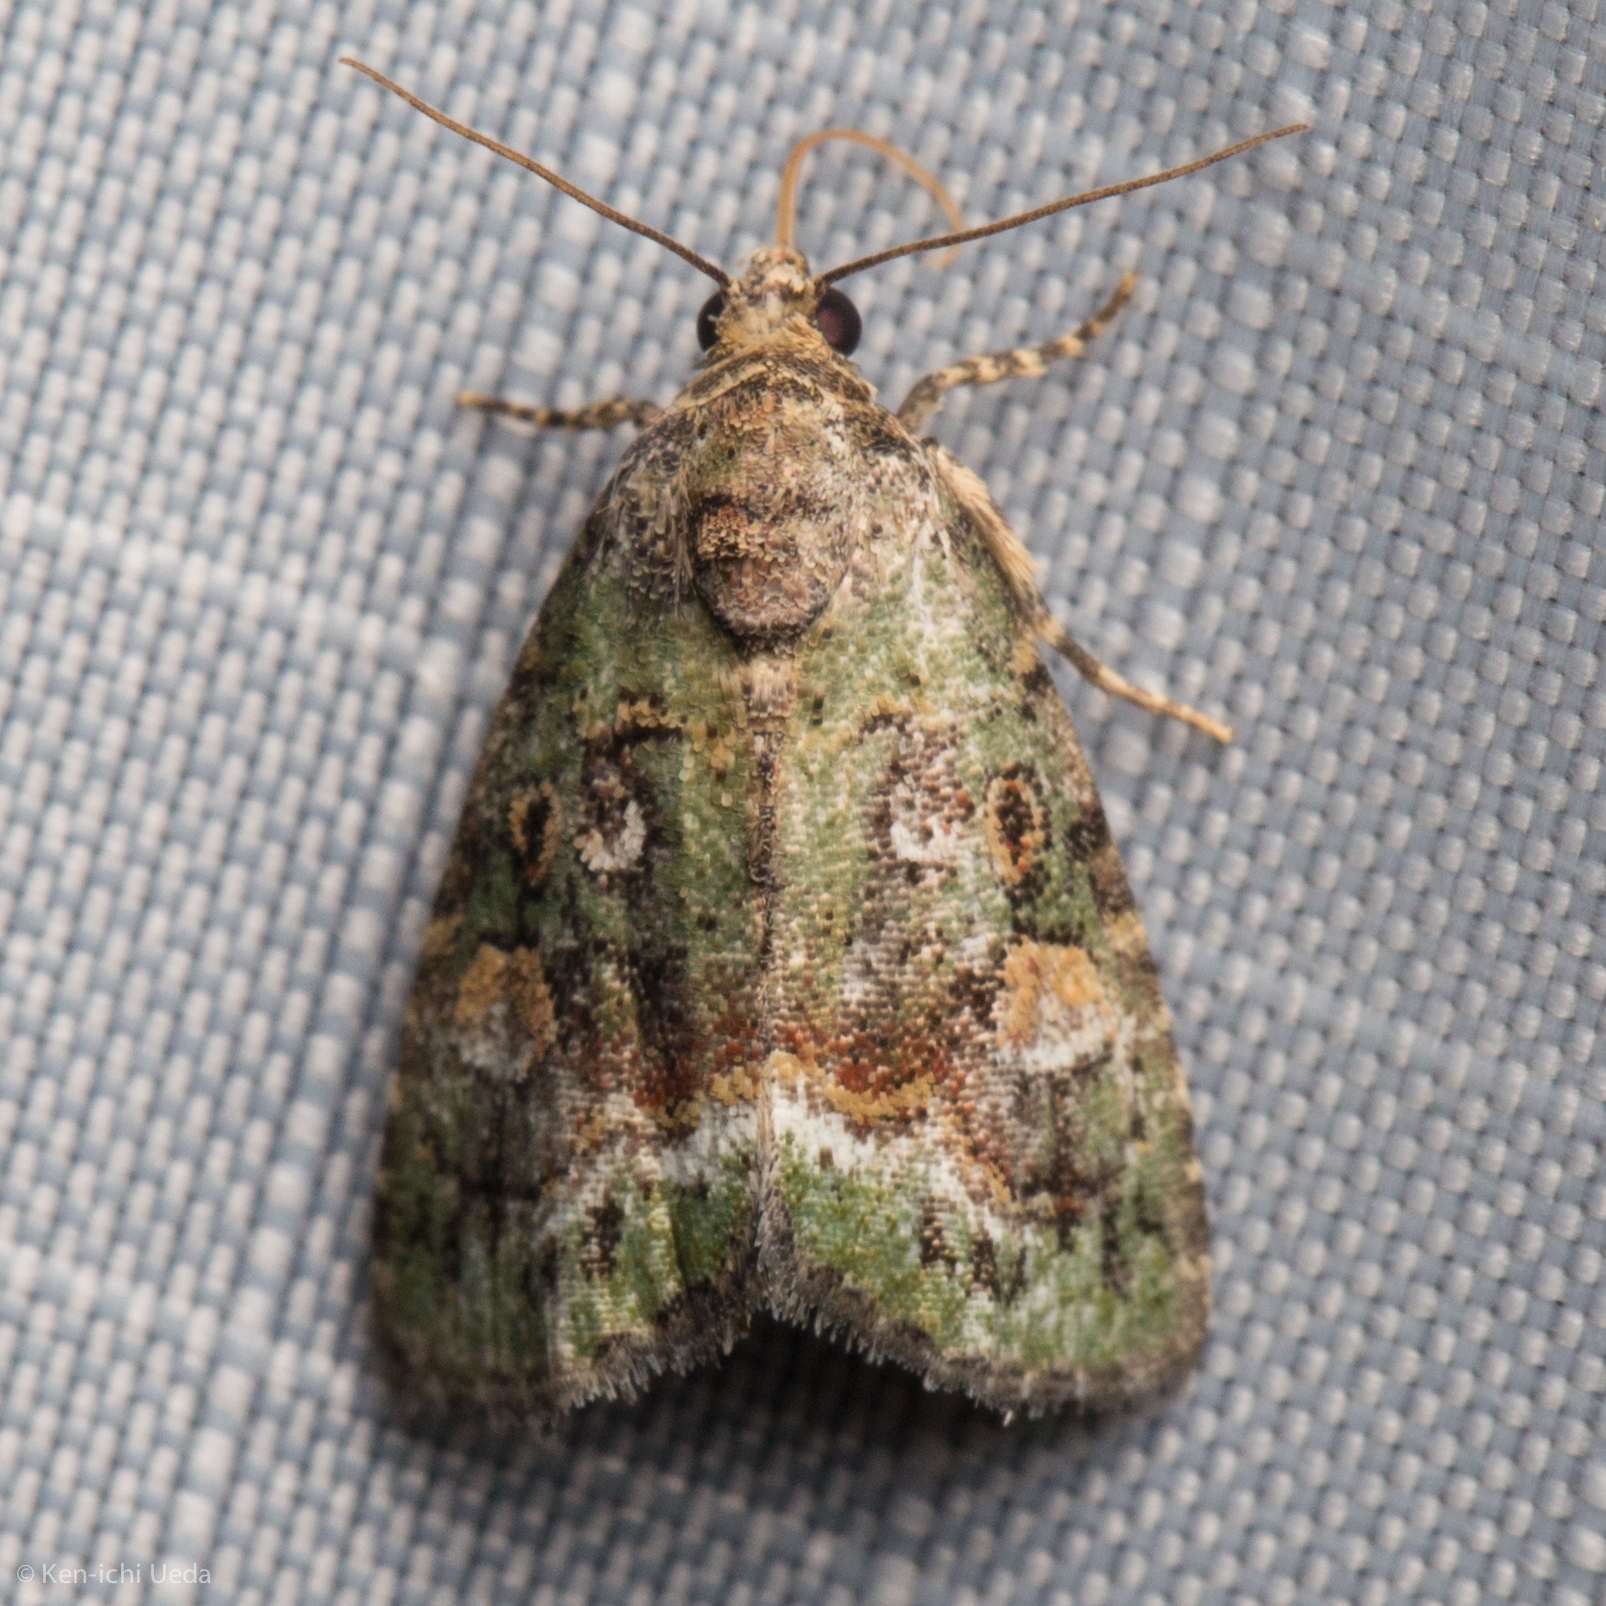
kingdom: Animalia
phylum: Arthropoda
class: Insecta
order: Lepidoptera
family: Noctuidae
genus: Lithacodia
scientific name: Lithacodia musta
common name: Small mossy glyph
